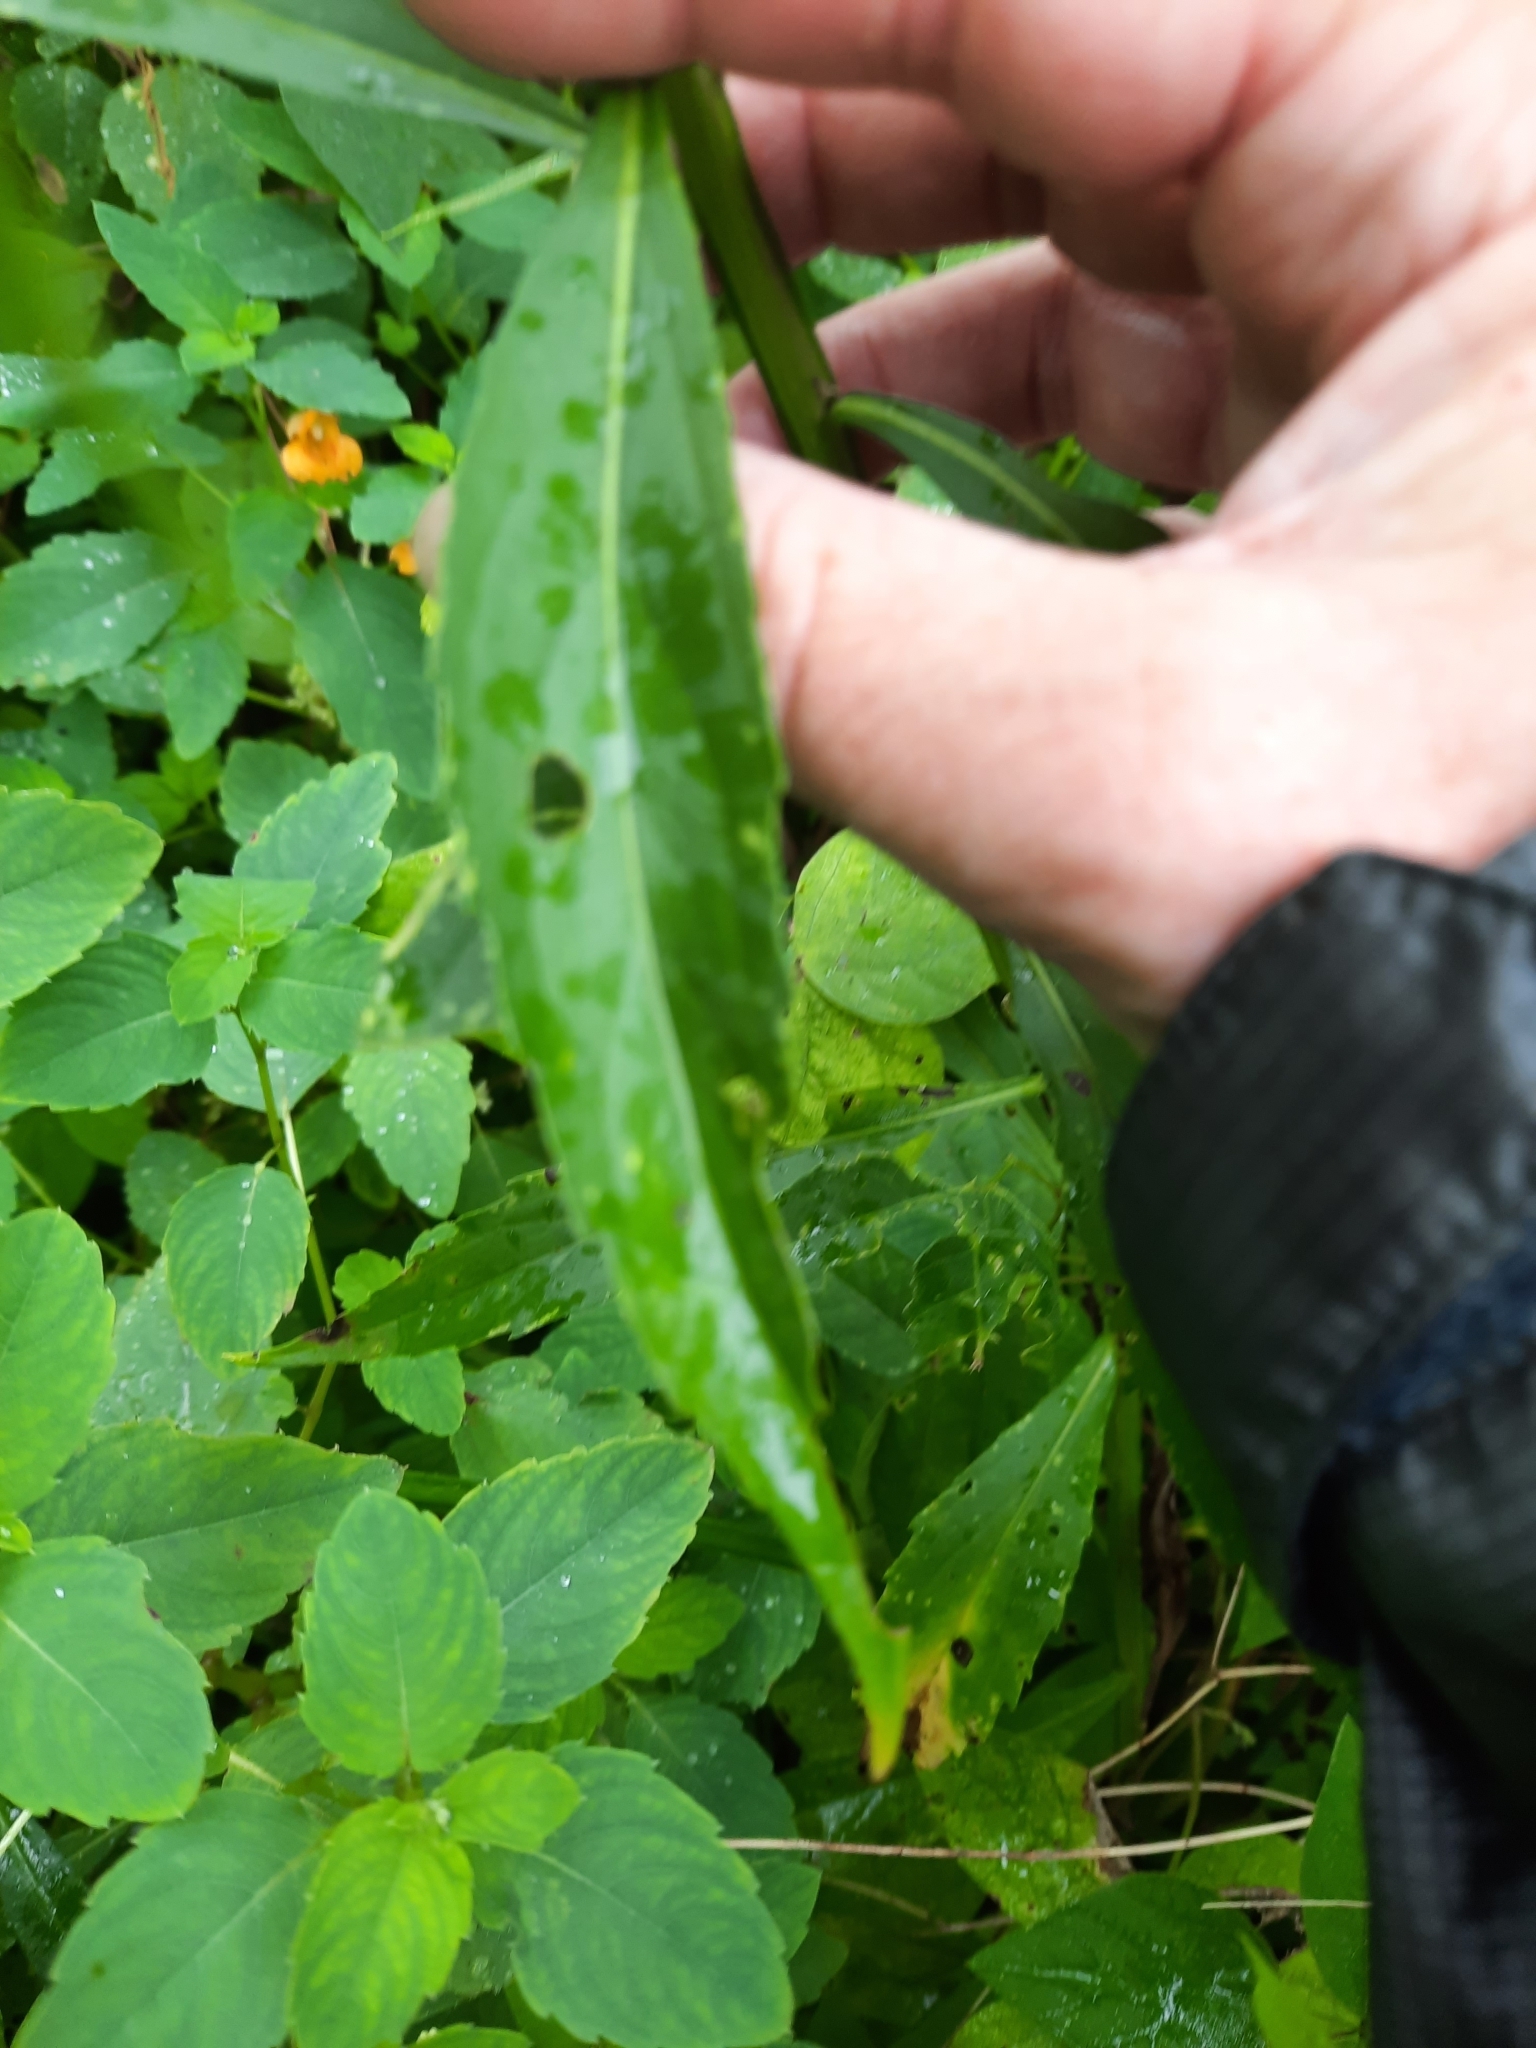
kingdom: Plantae
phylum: Tracheophyta
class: Magnoliopsida
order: Asterales
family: Asteraceae
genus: Helenium
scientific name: Helenium autumnale
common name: Sneezeweed
